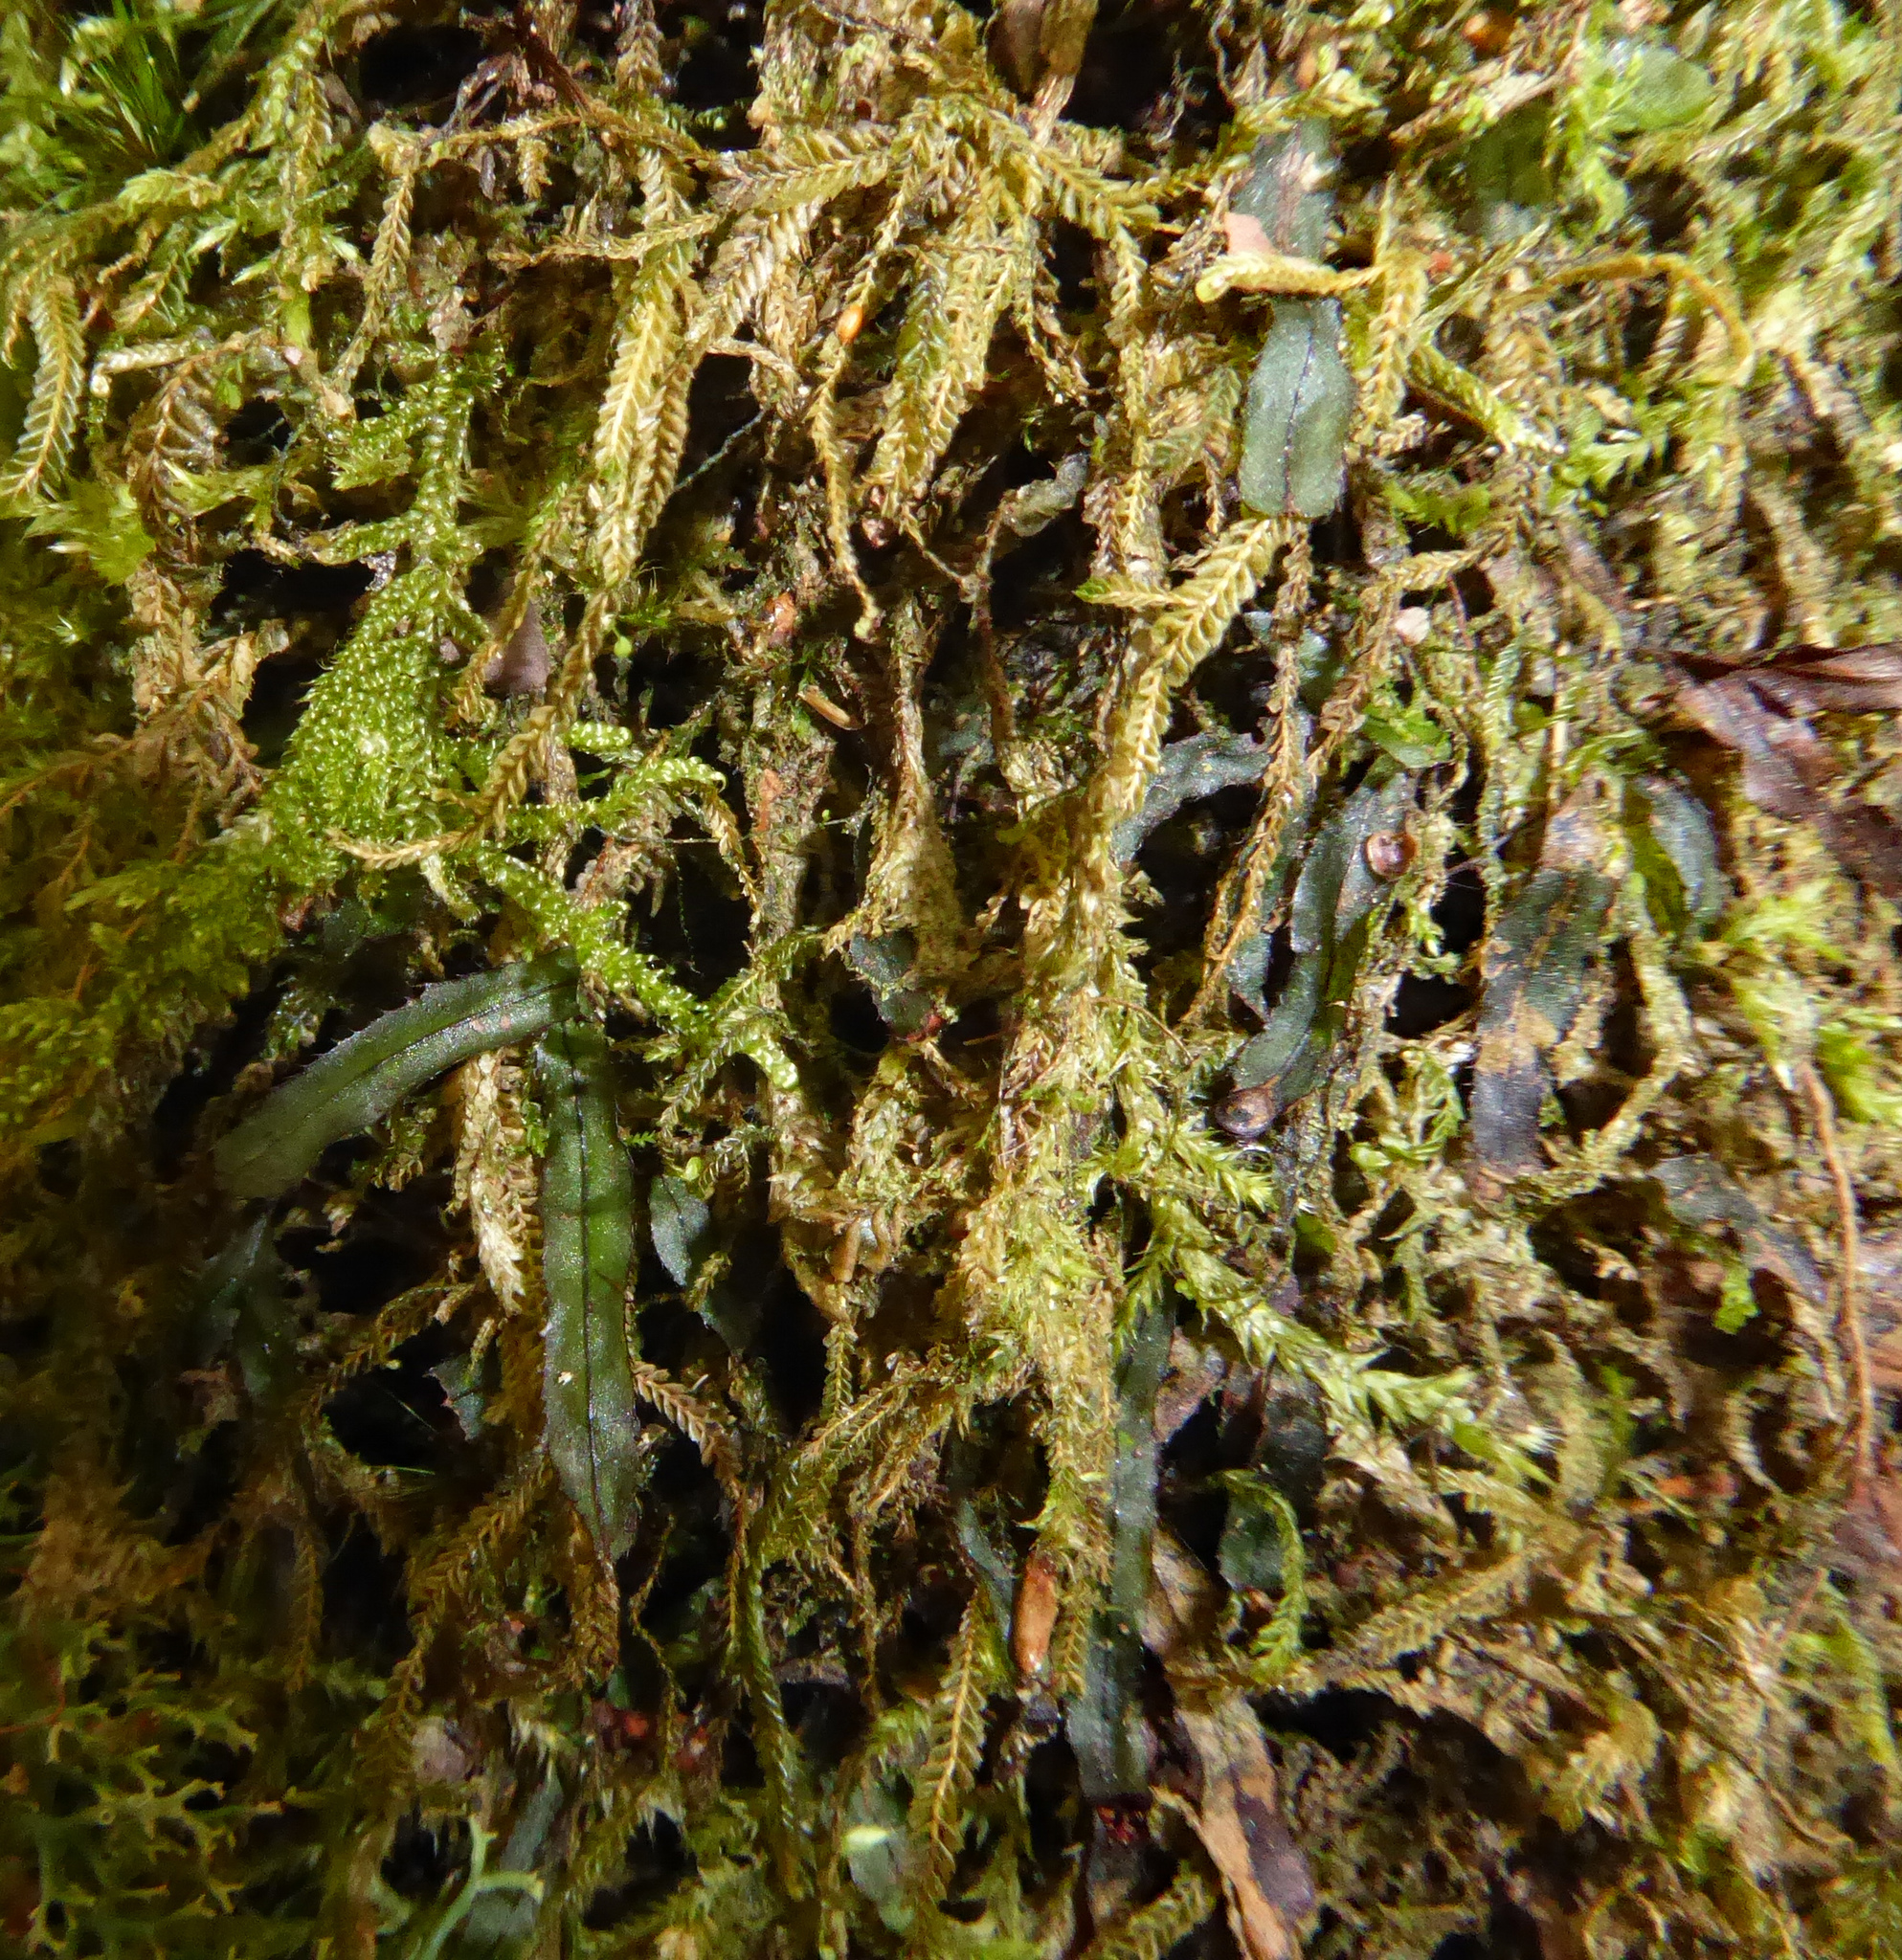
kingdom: Plantae
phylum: Tracheophyta
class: Polypodiopsida
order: Hymenophyllales
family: Hymenophyllaceae
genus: Hymenophyllum
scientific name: Hymenophyllum armstrongii
